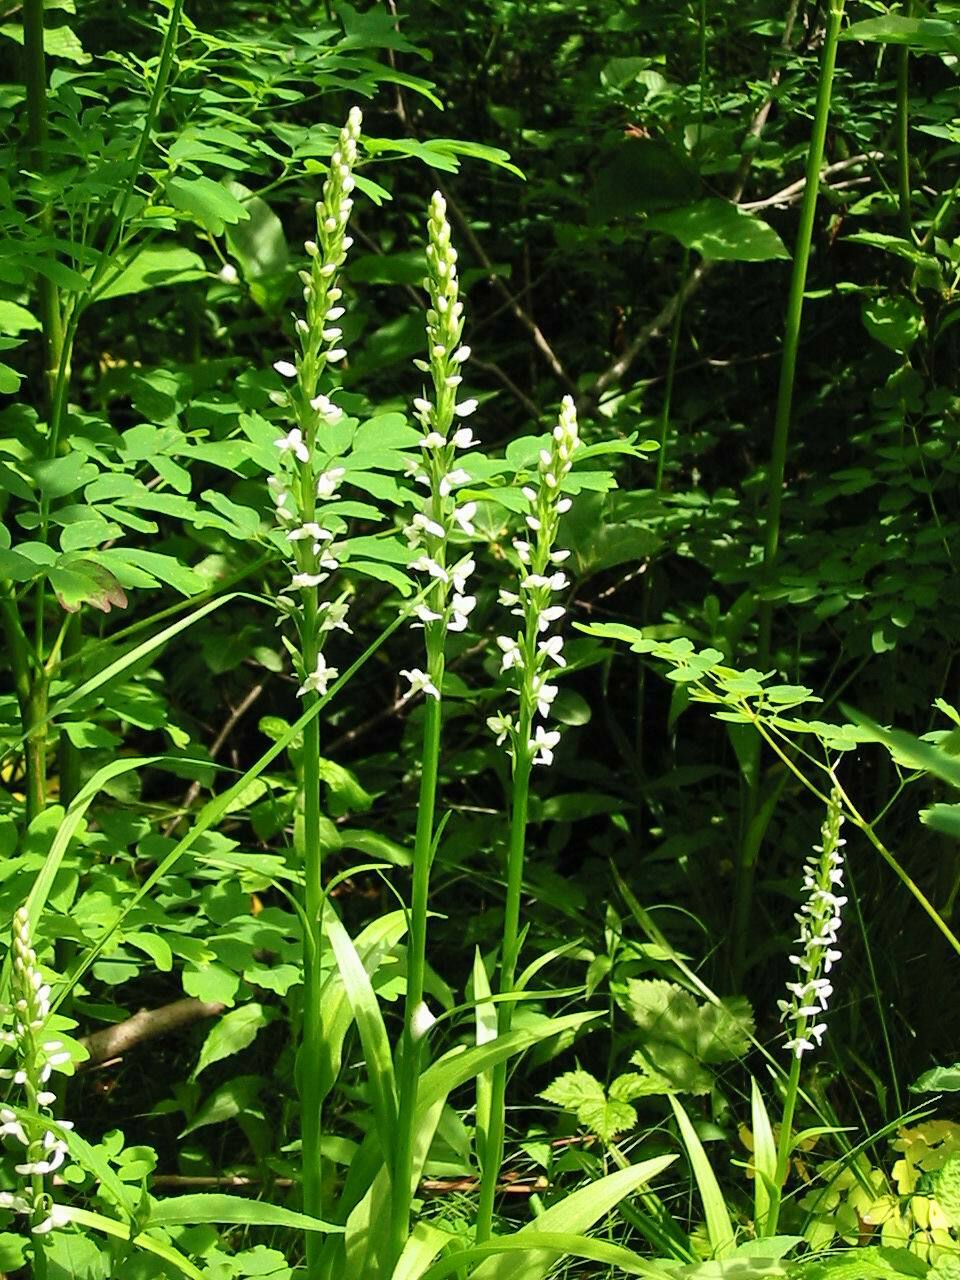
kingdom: Plantae
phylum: Tracheophyta
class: Liliopsida
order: Asparagales
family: Orchidaceae
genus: Platanthera
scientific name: Platanthera dilatata
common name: Bog candles
